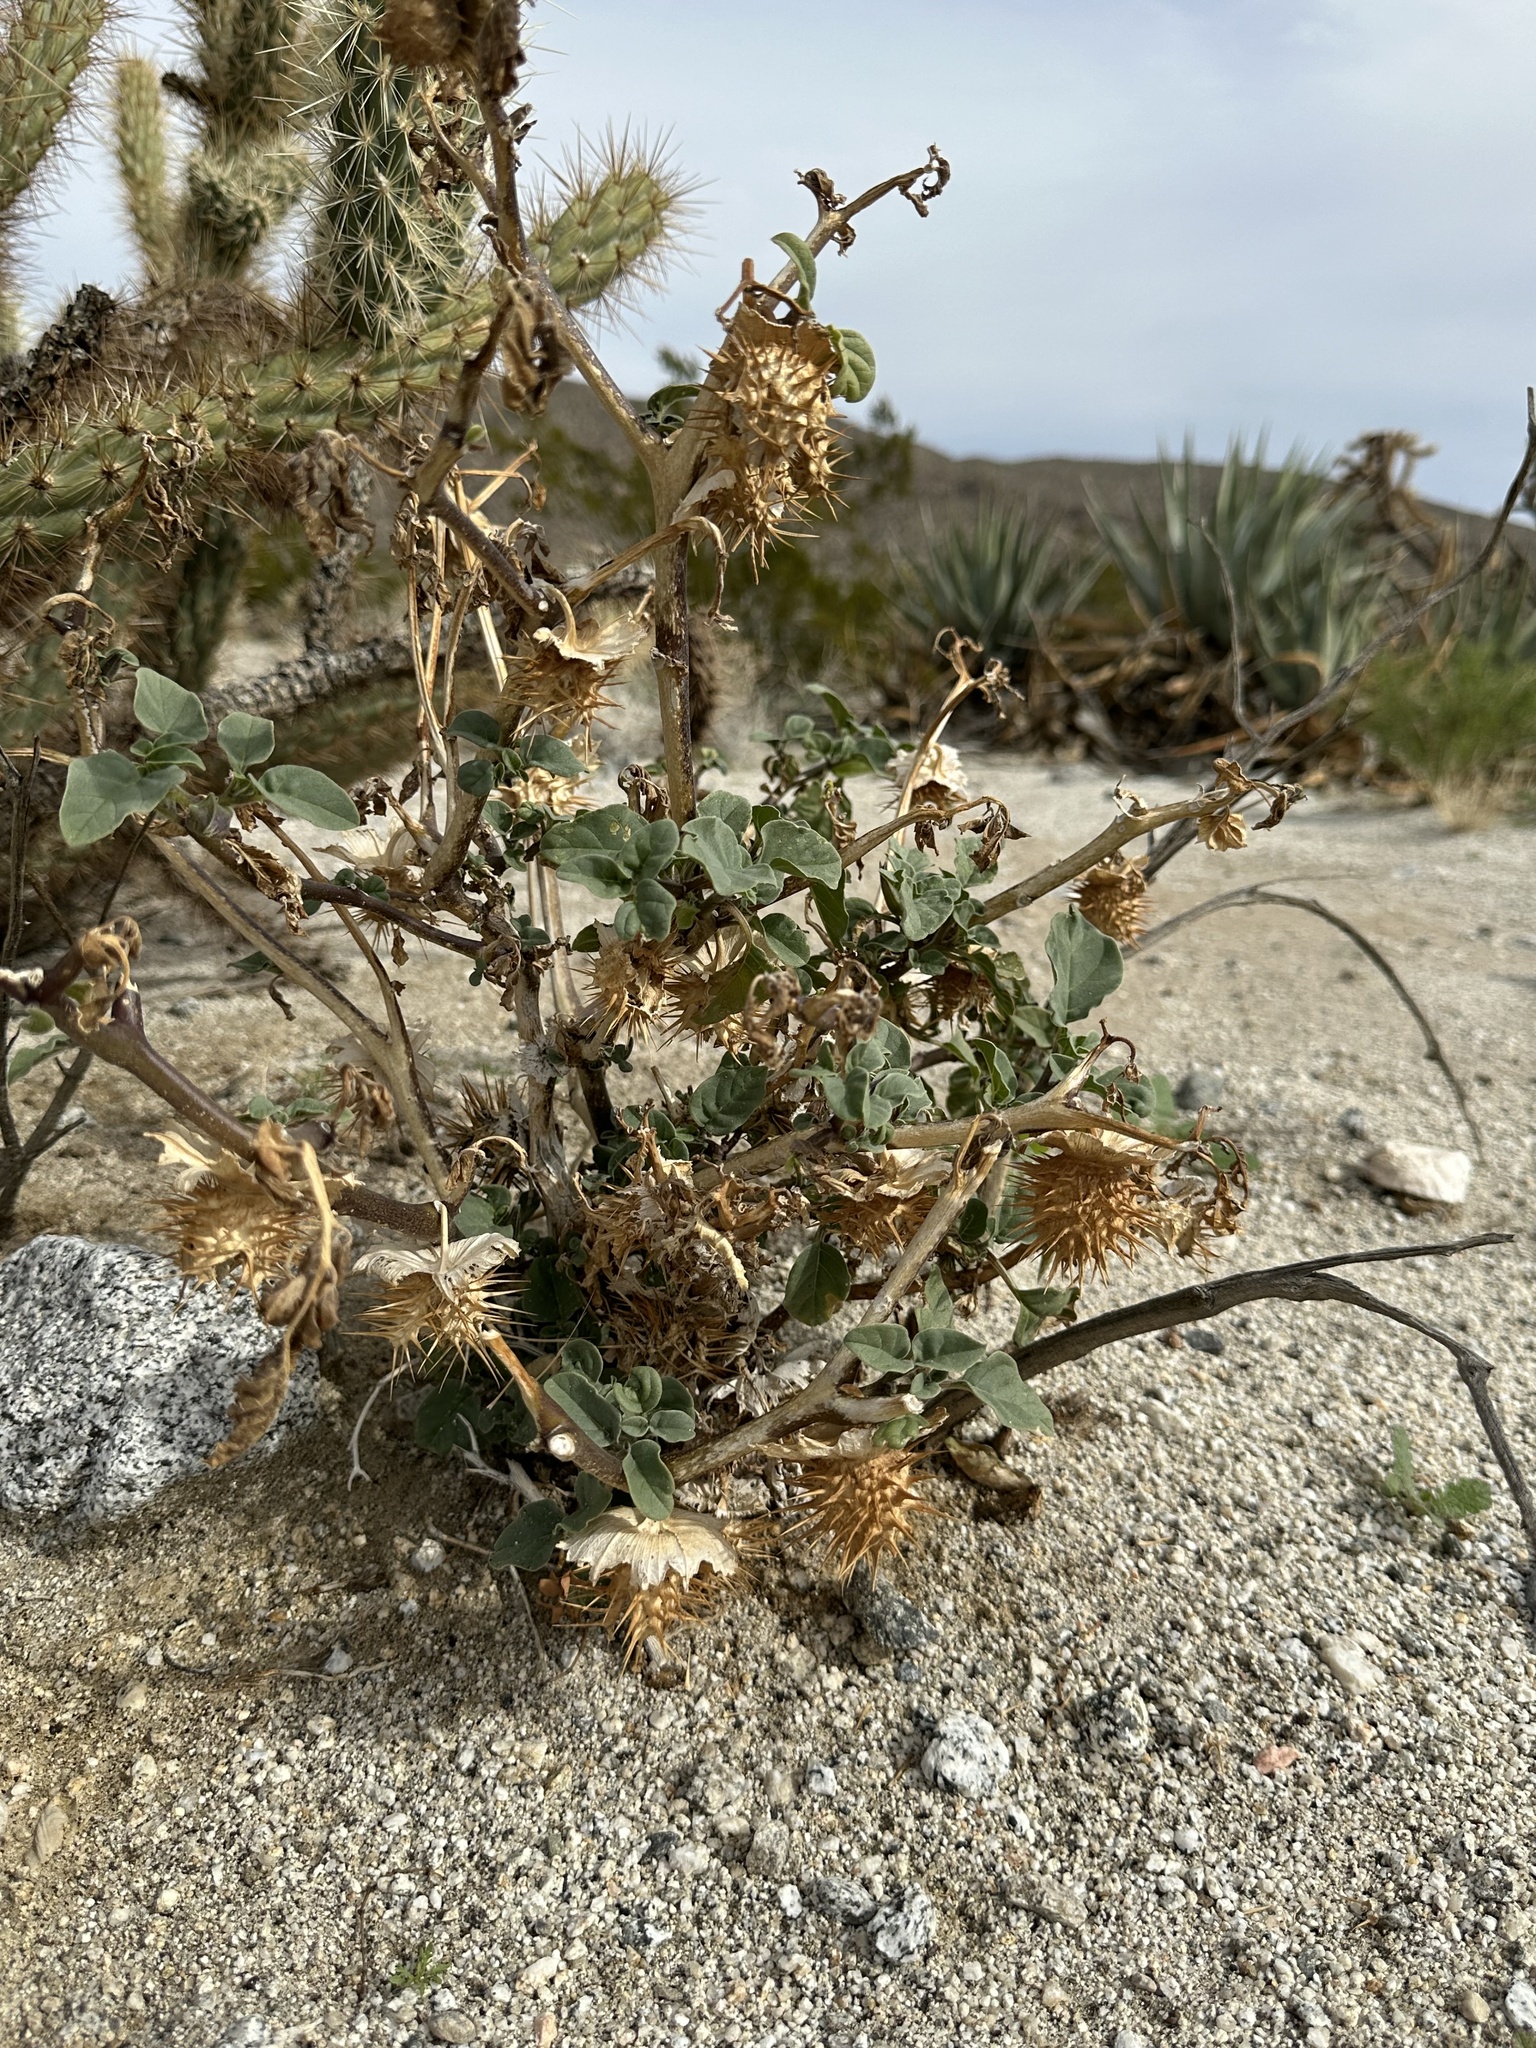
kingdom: Plantae
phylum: Tracheophyta
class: Magnoliopsida
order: Solanales
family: Solanaceae
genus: Datura
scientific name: Datura discolor
